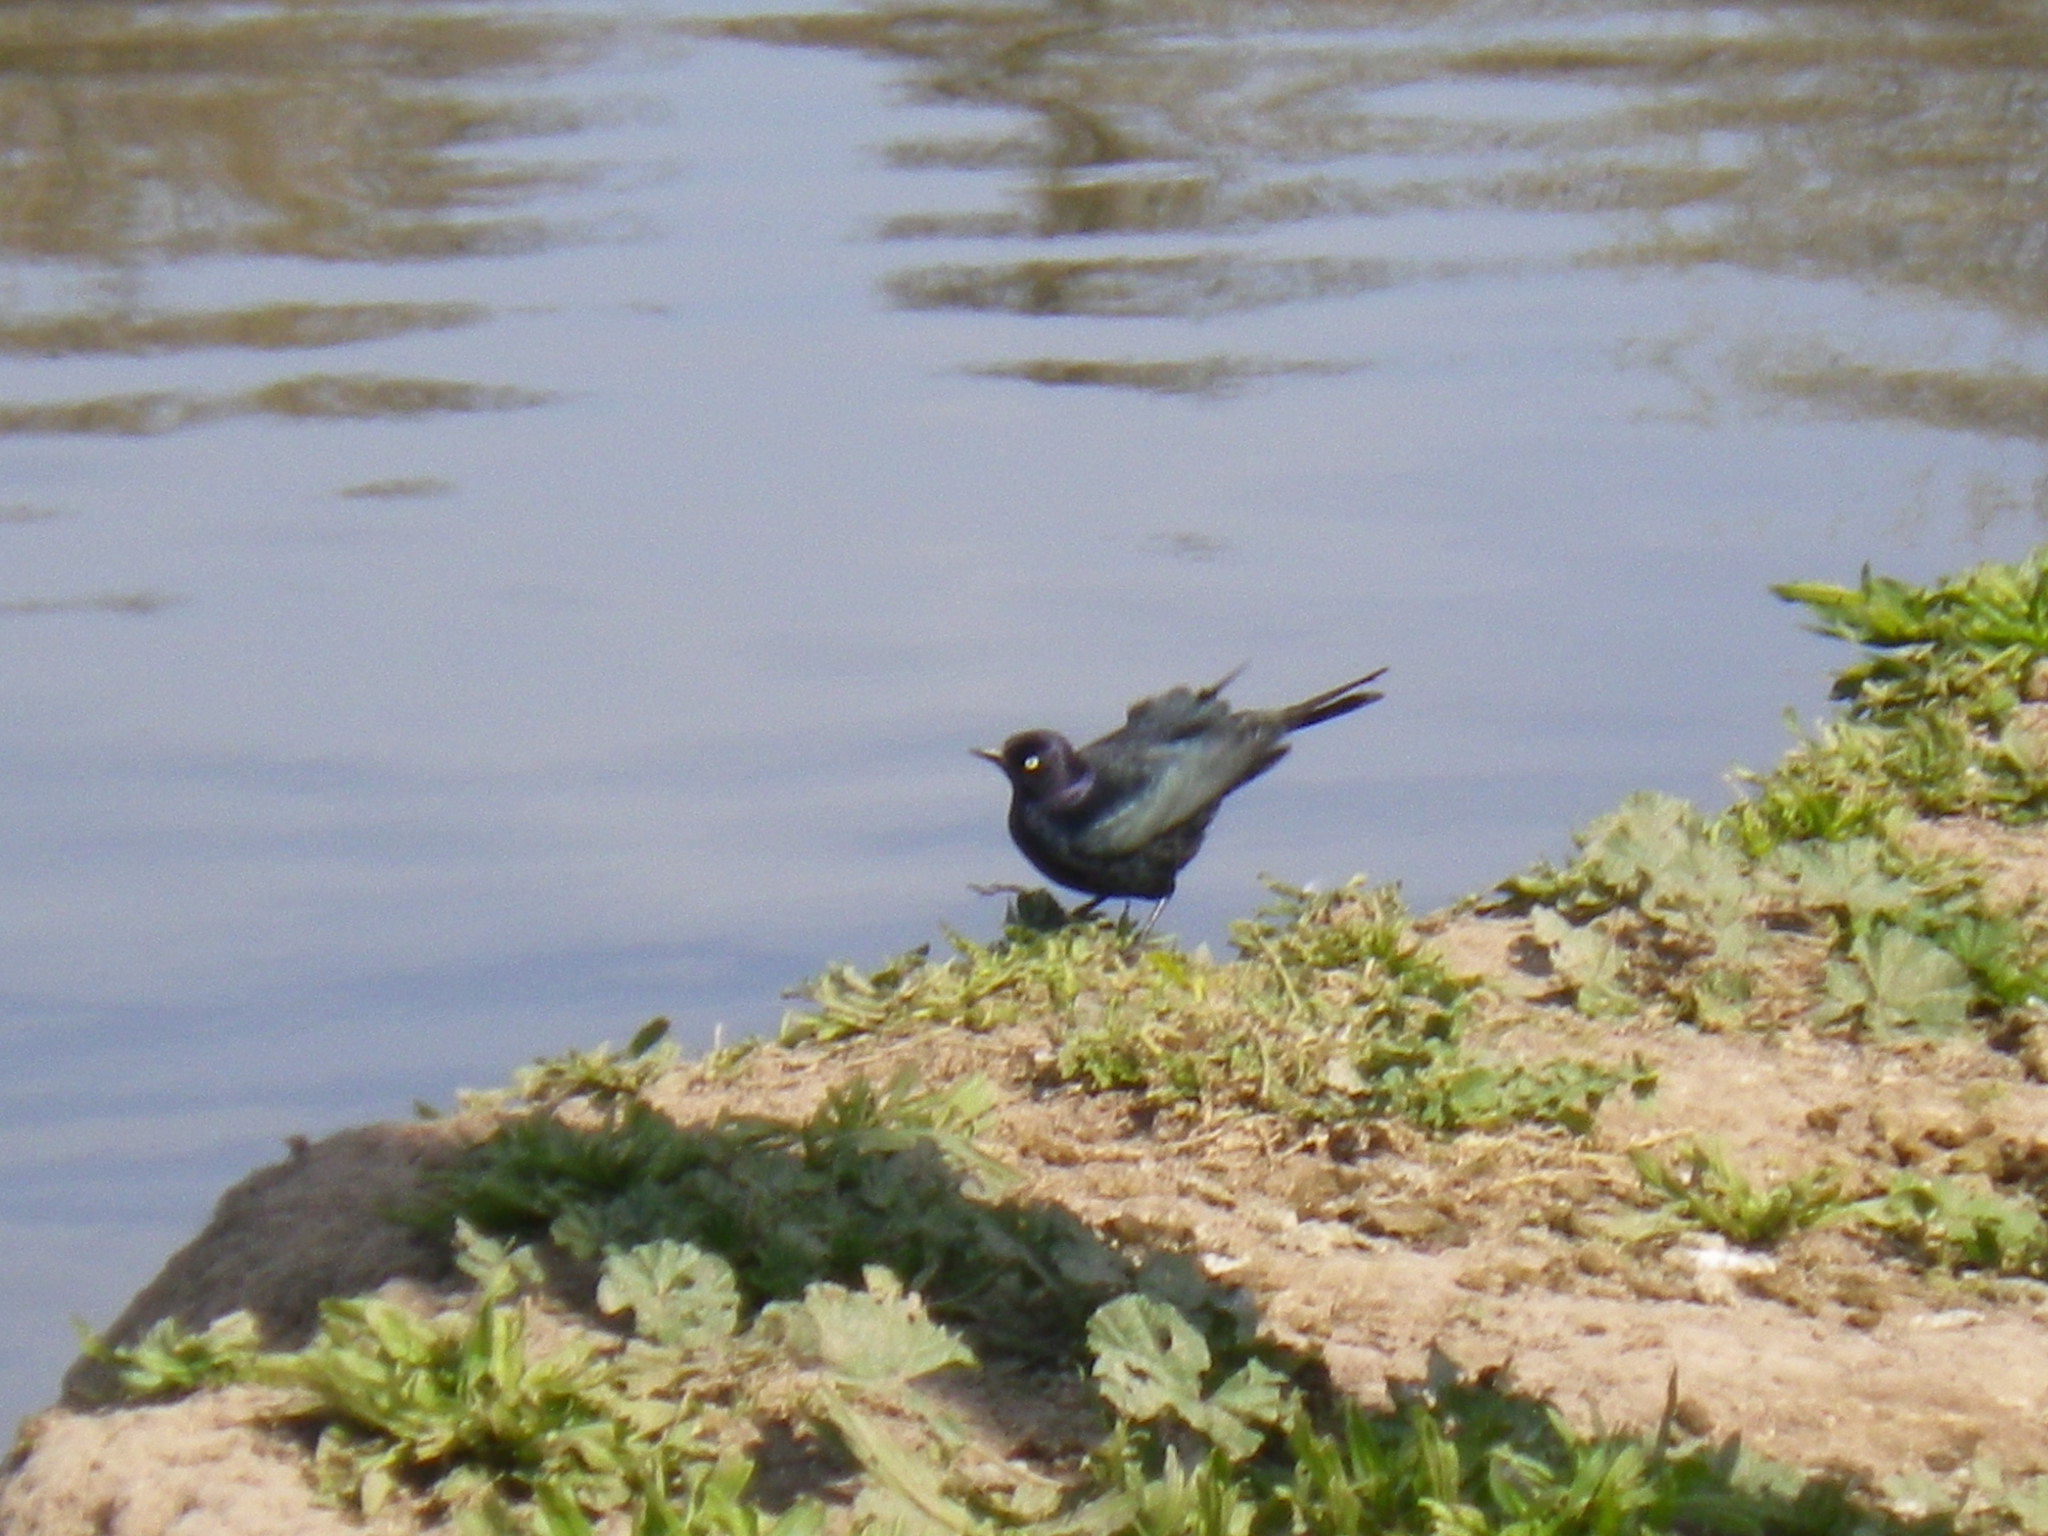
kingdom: Animalia
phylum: Chordata
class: Aves
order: Passeriformes
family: Icteridae
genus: Euphagus
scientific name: Euphagus cyanocephalus
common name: Brewer's blackbird
